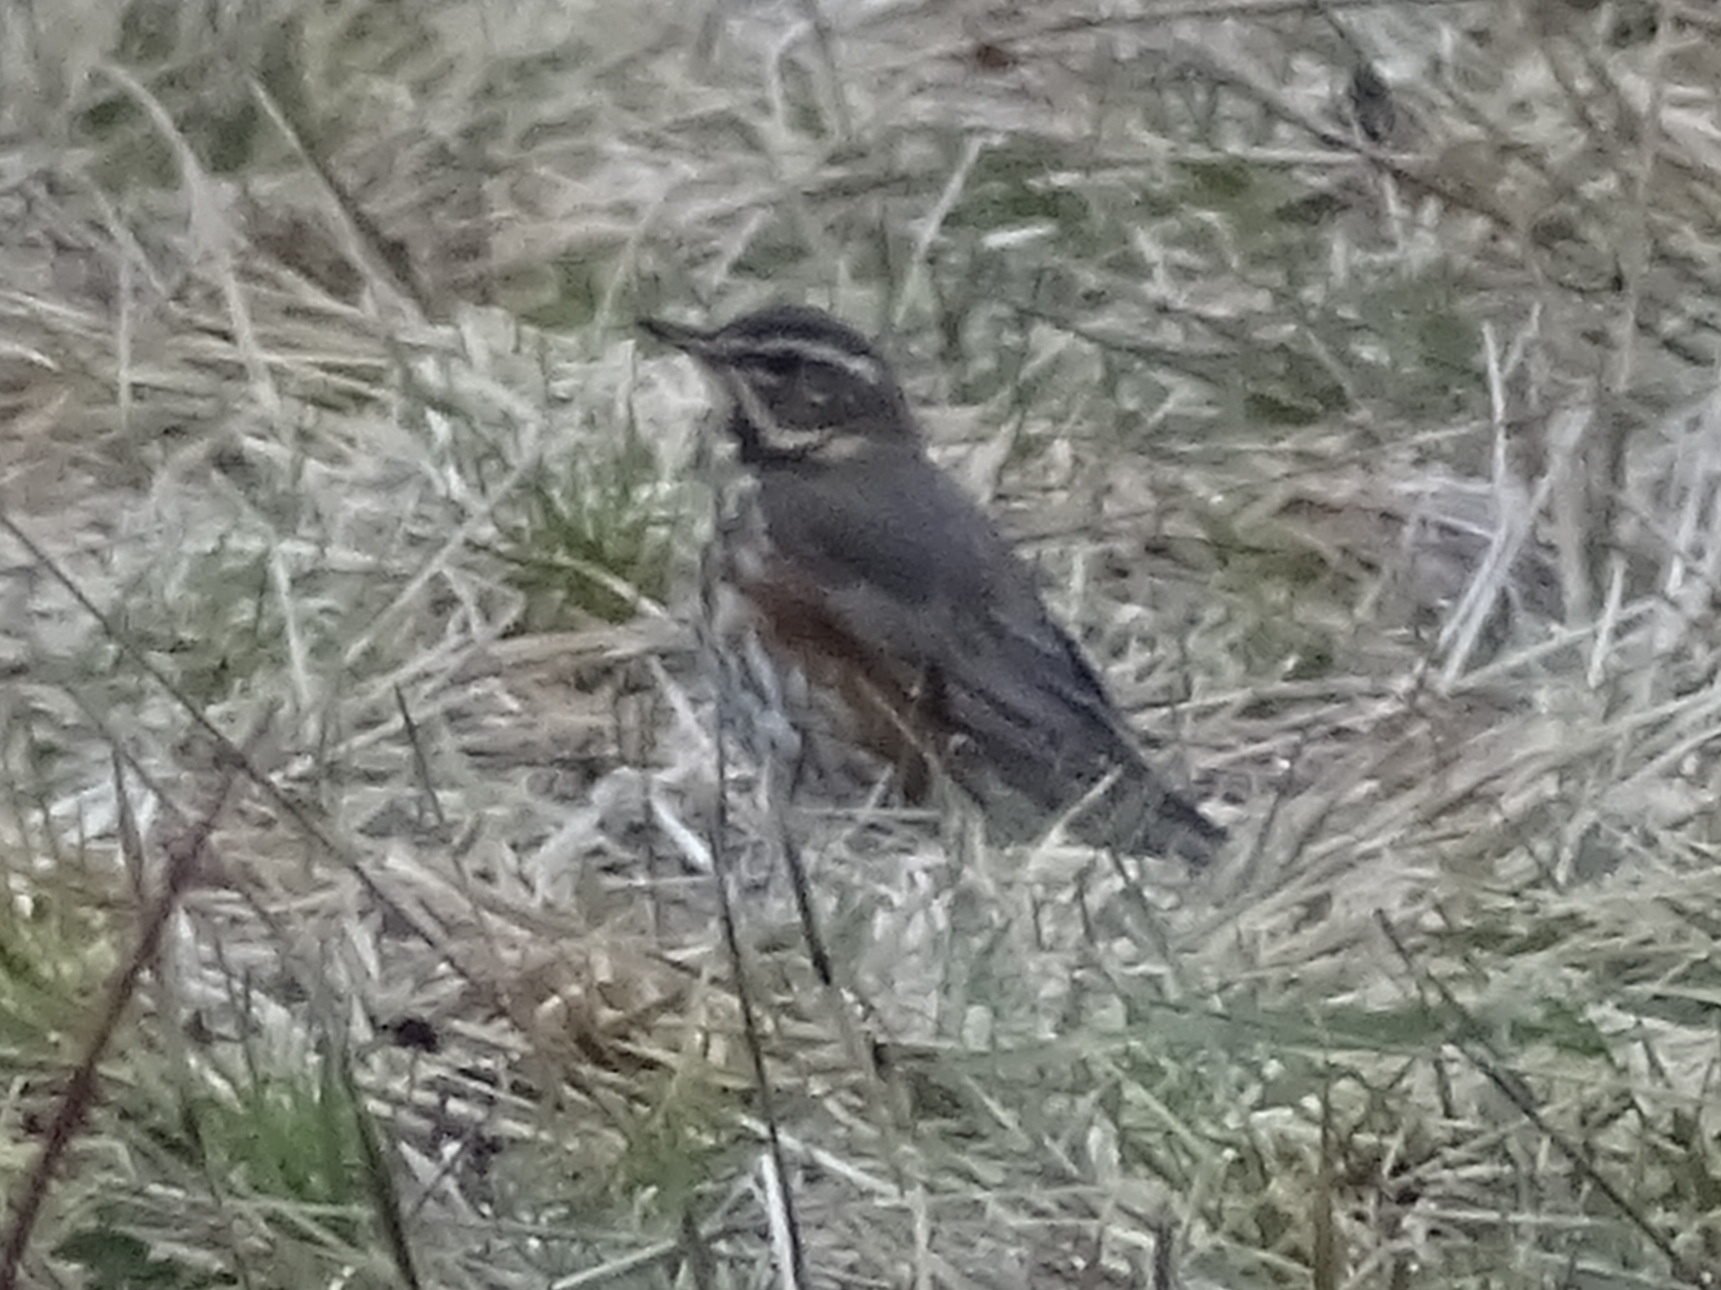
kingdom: Animalia
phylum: Chordata
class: Aves
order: Passeriformes
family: Turdidae
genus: Turdus
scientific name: Turdus iliacus
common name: Redwing
